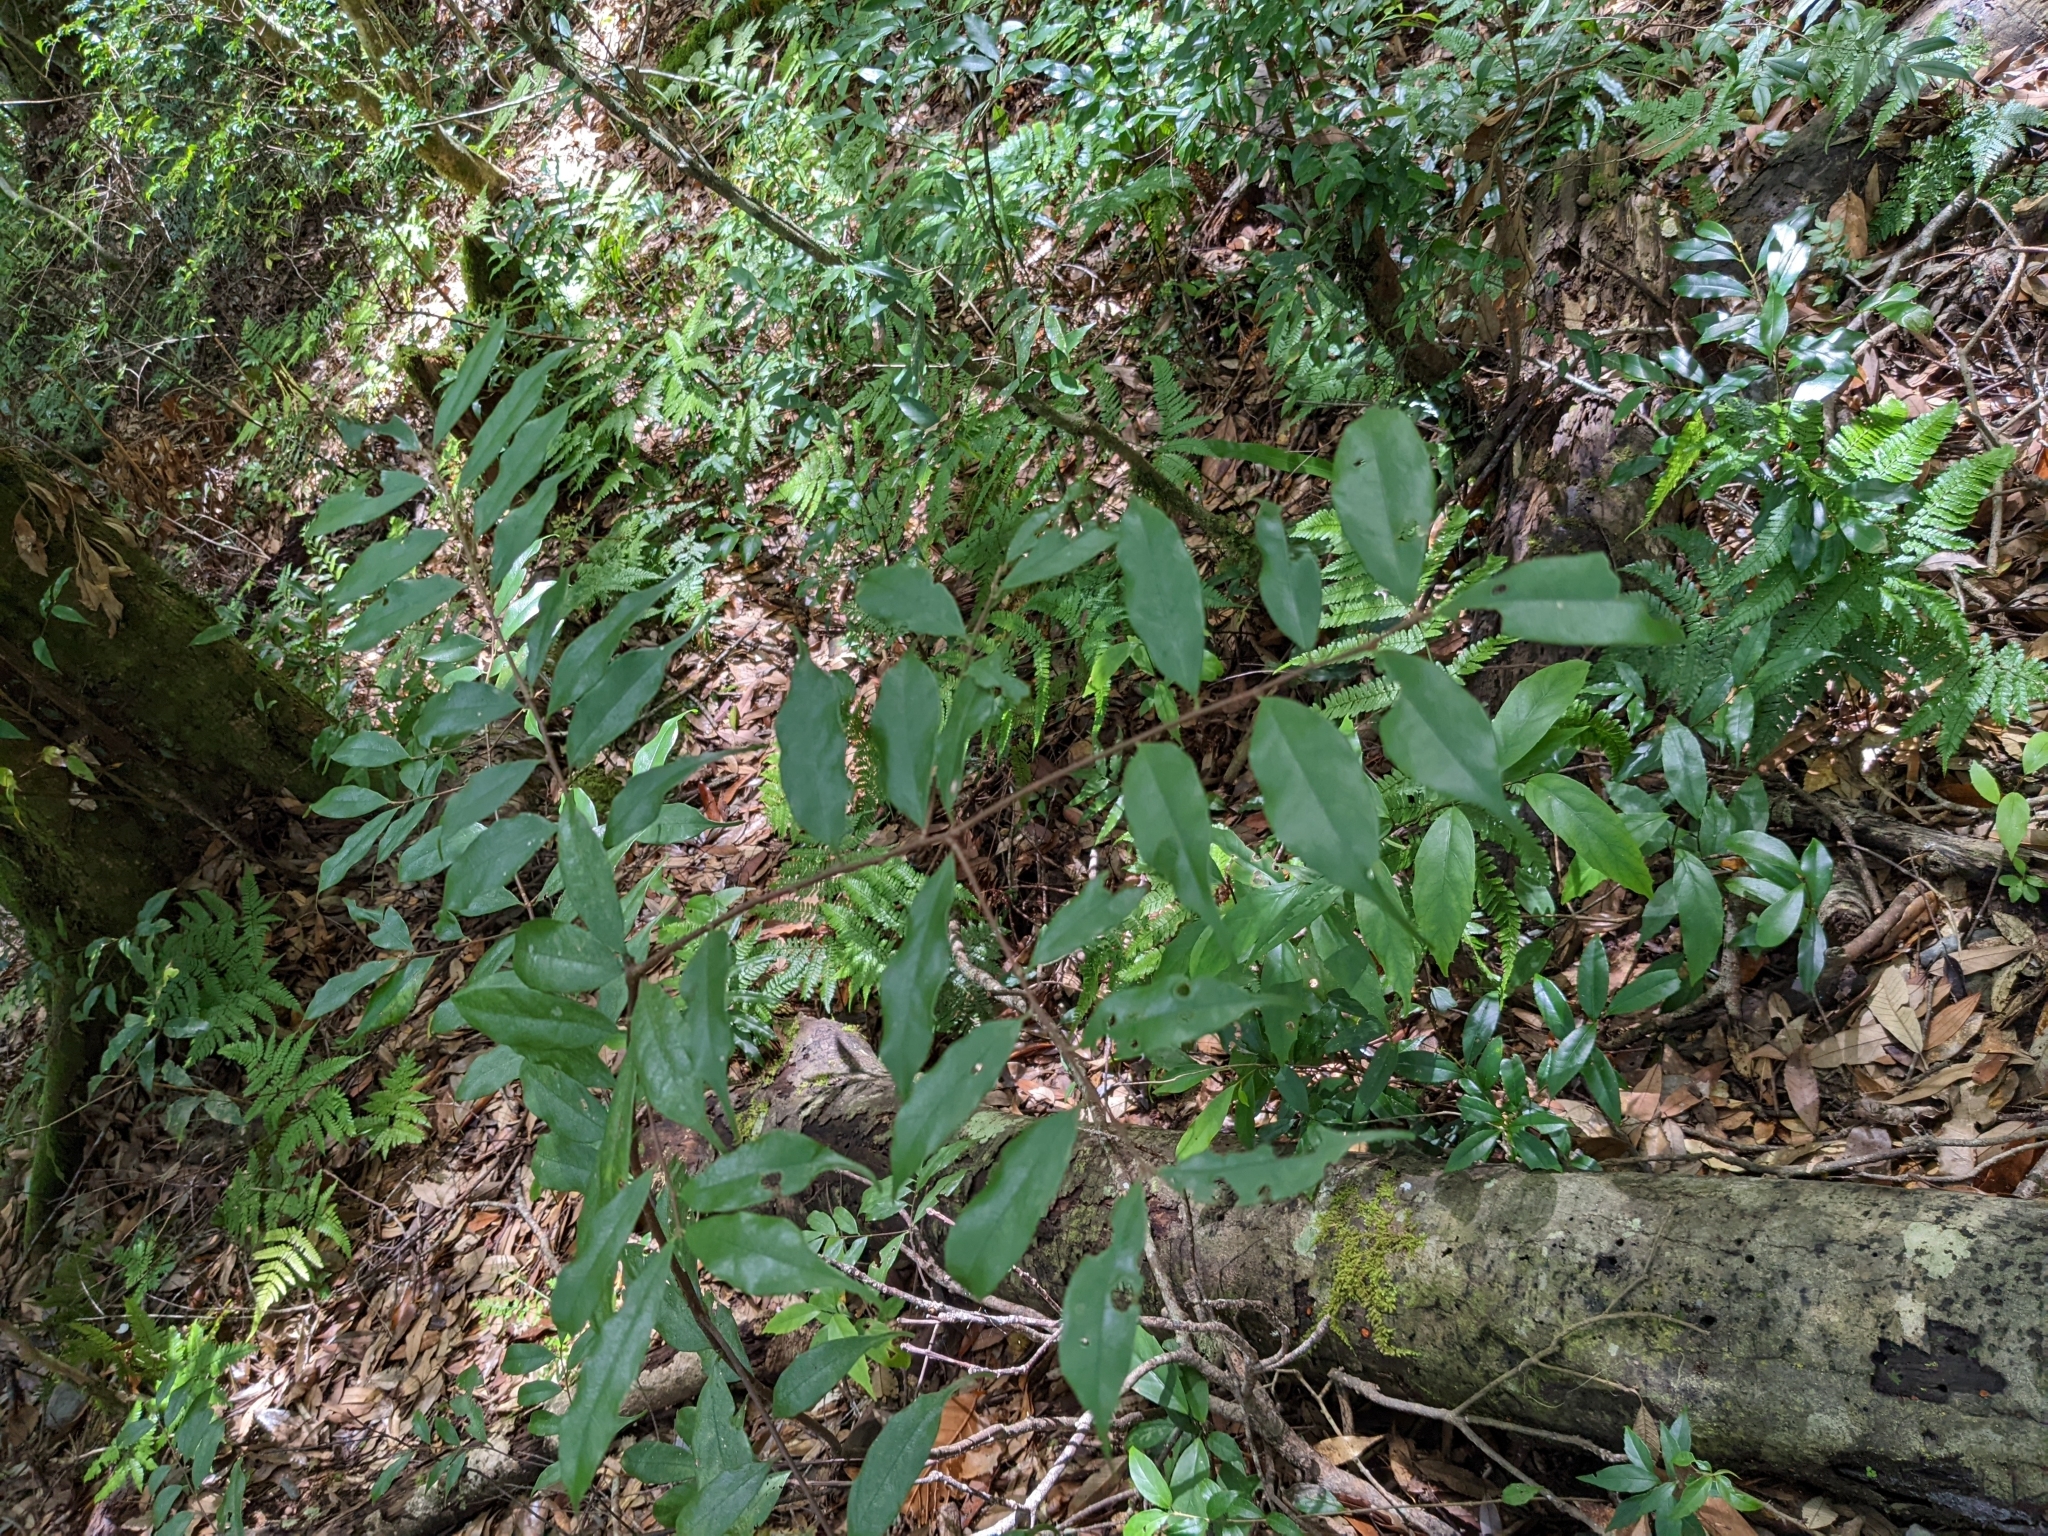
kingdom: Plantae
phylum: Tracheophyta
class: Magnoliopsida
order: Rosales
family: Rosaceae
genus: Prunus
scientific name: Prunus phaeosticta
